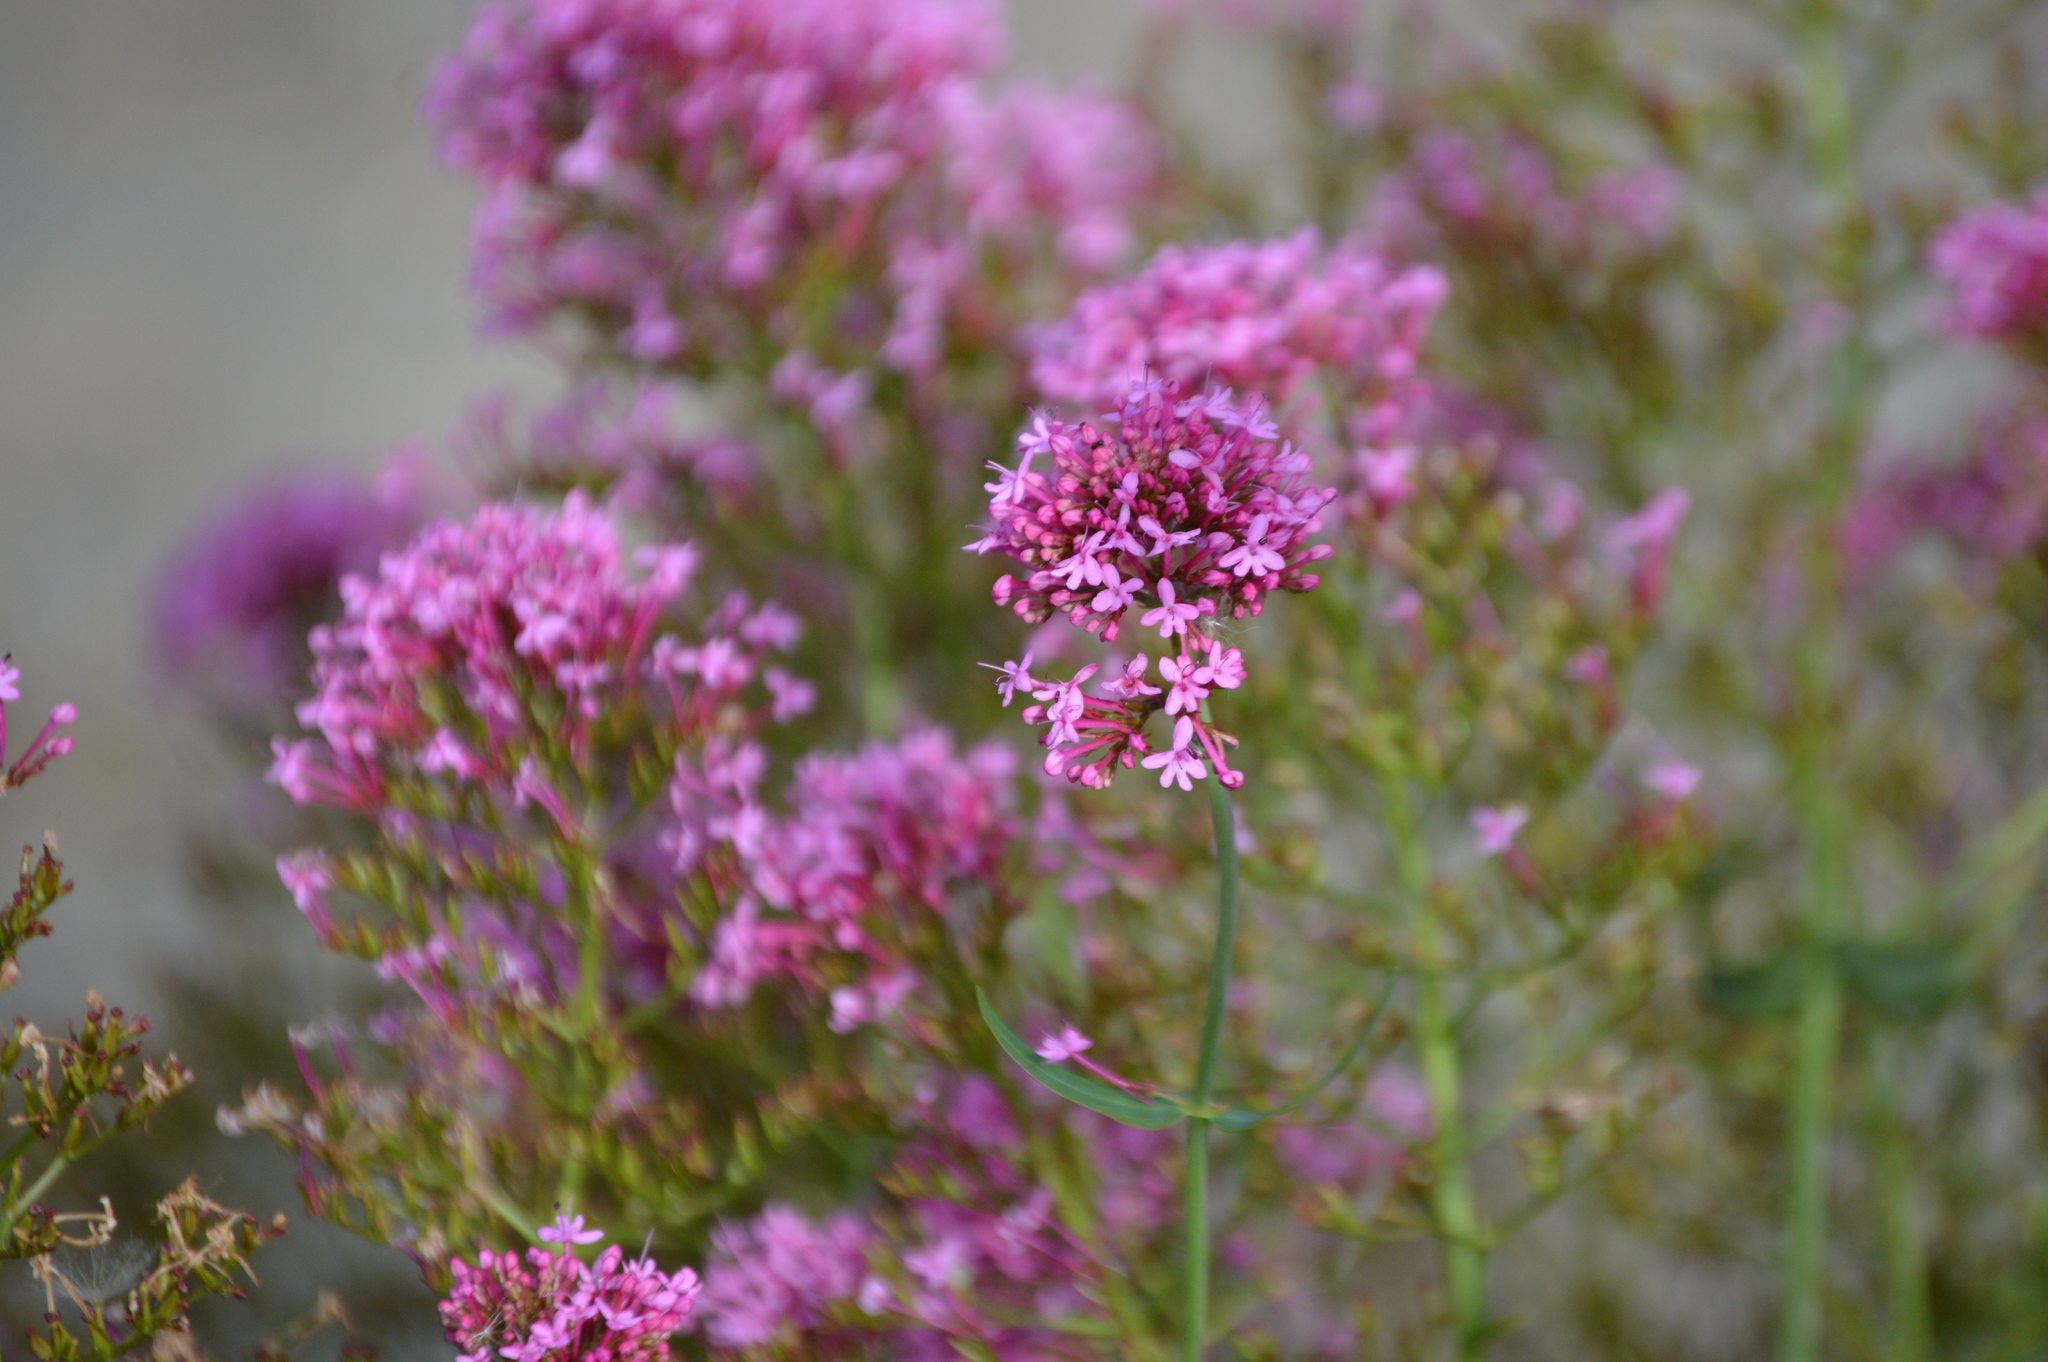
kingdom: Plantae
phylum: Tracheophyta
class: Magnoliopsida
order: Dipsacales
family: Caprifoliaceae
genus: Centranthus
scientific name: Centranthus ruber
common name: Red valerian
